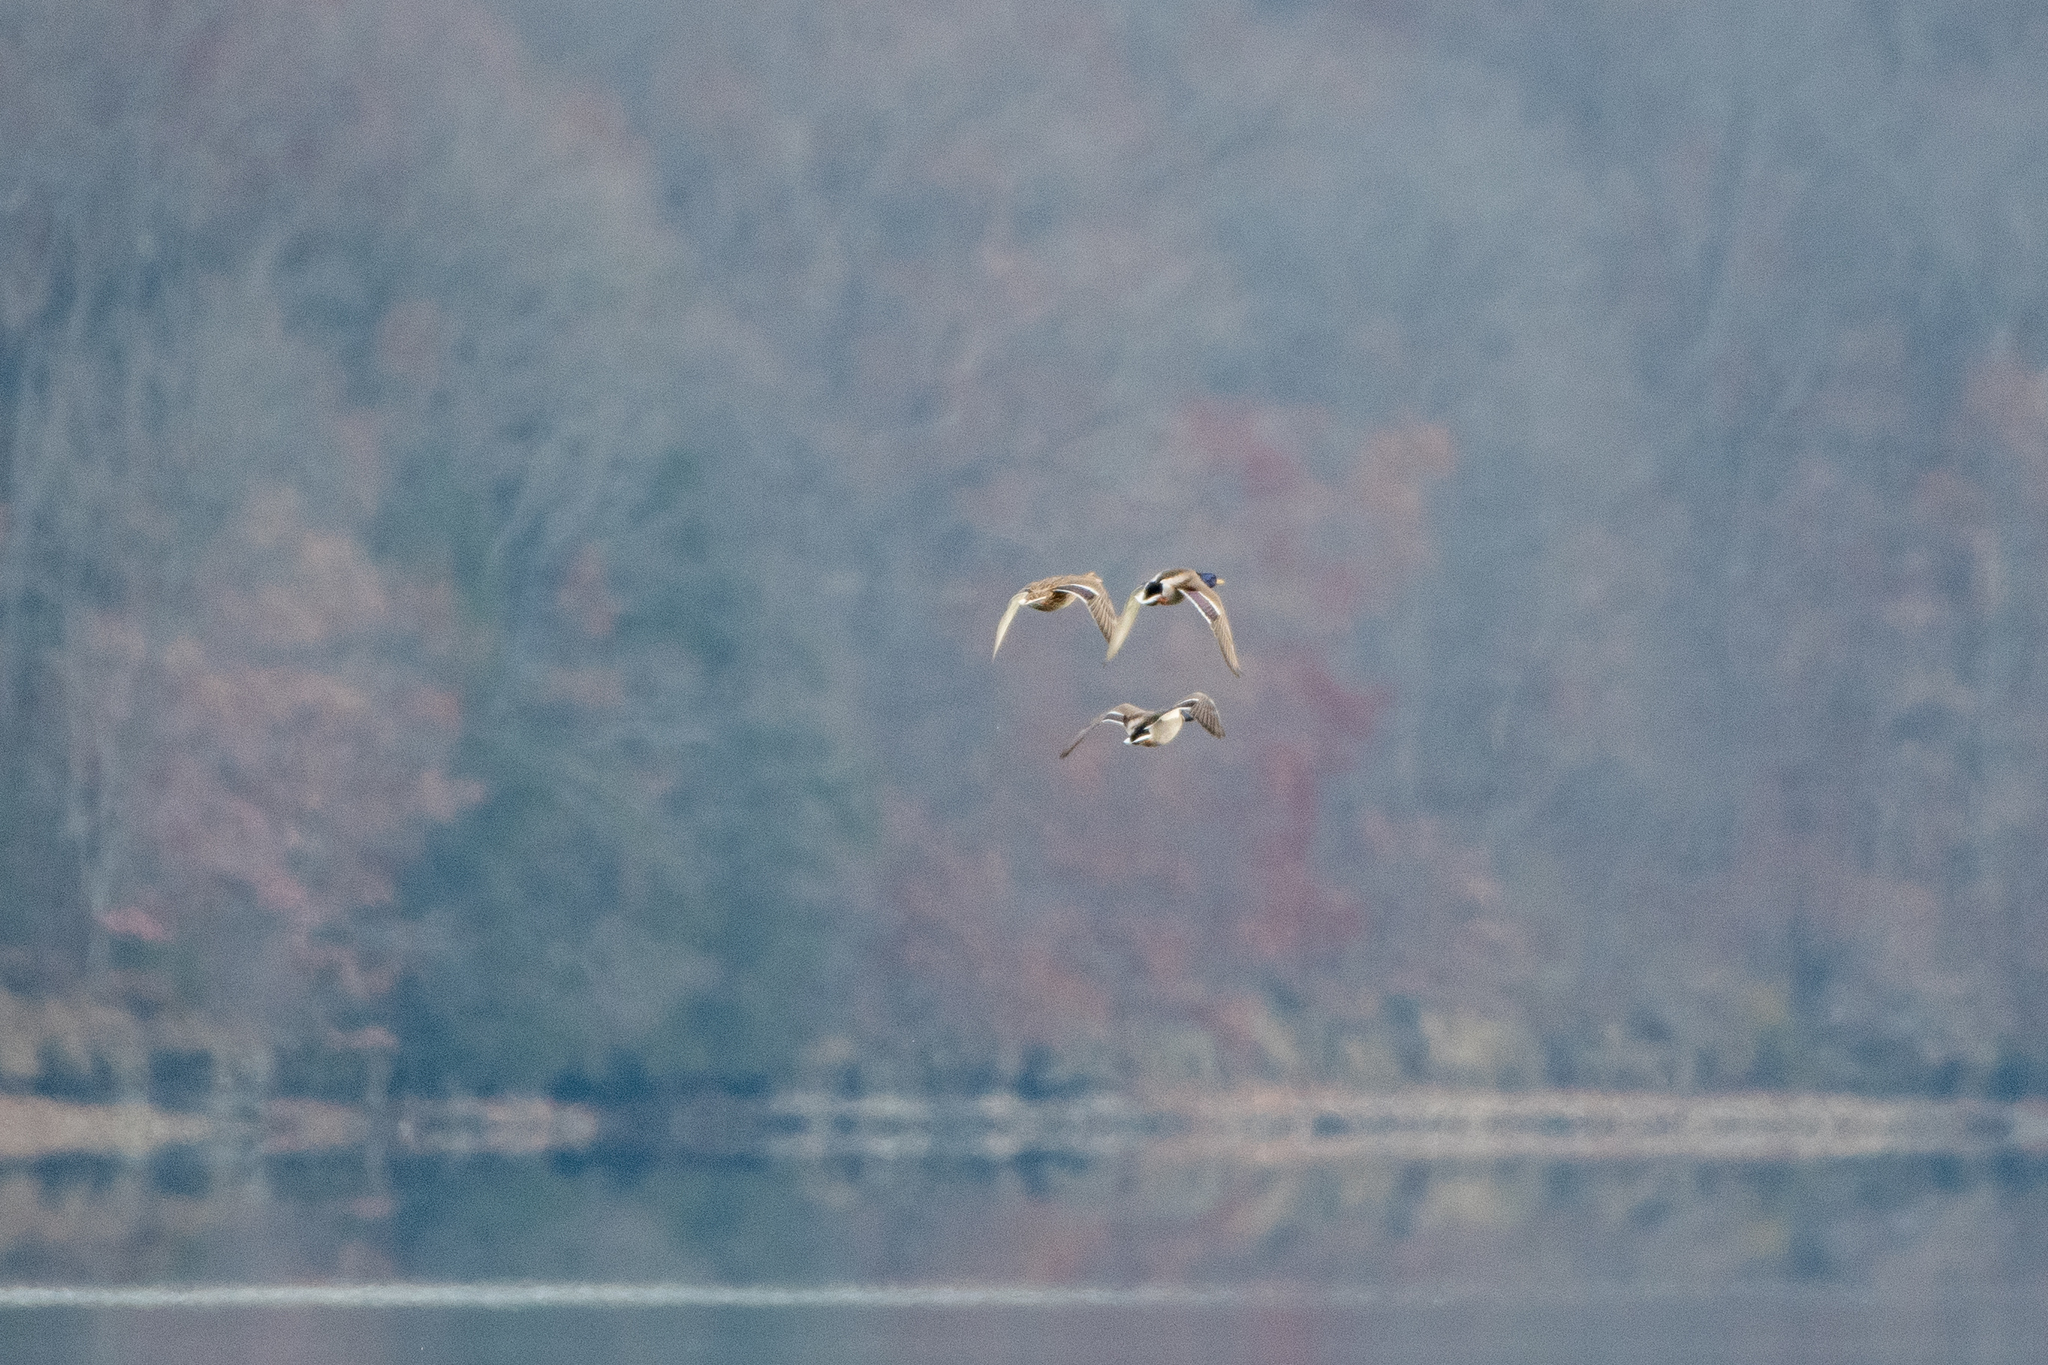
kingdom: Animalia
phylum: Chordata
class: Aves
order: Anseriformes
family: Anatidae
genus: Anas
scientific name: Anas platyrhynchos
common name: Mallard
